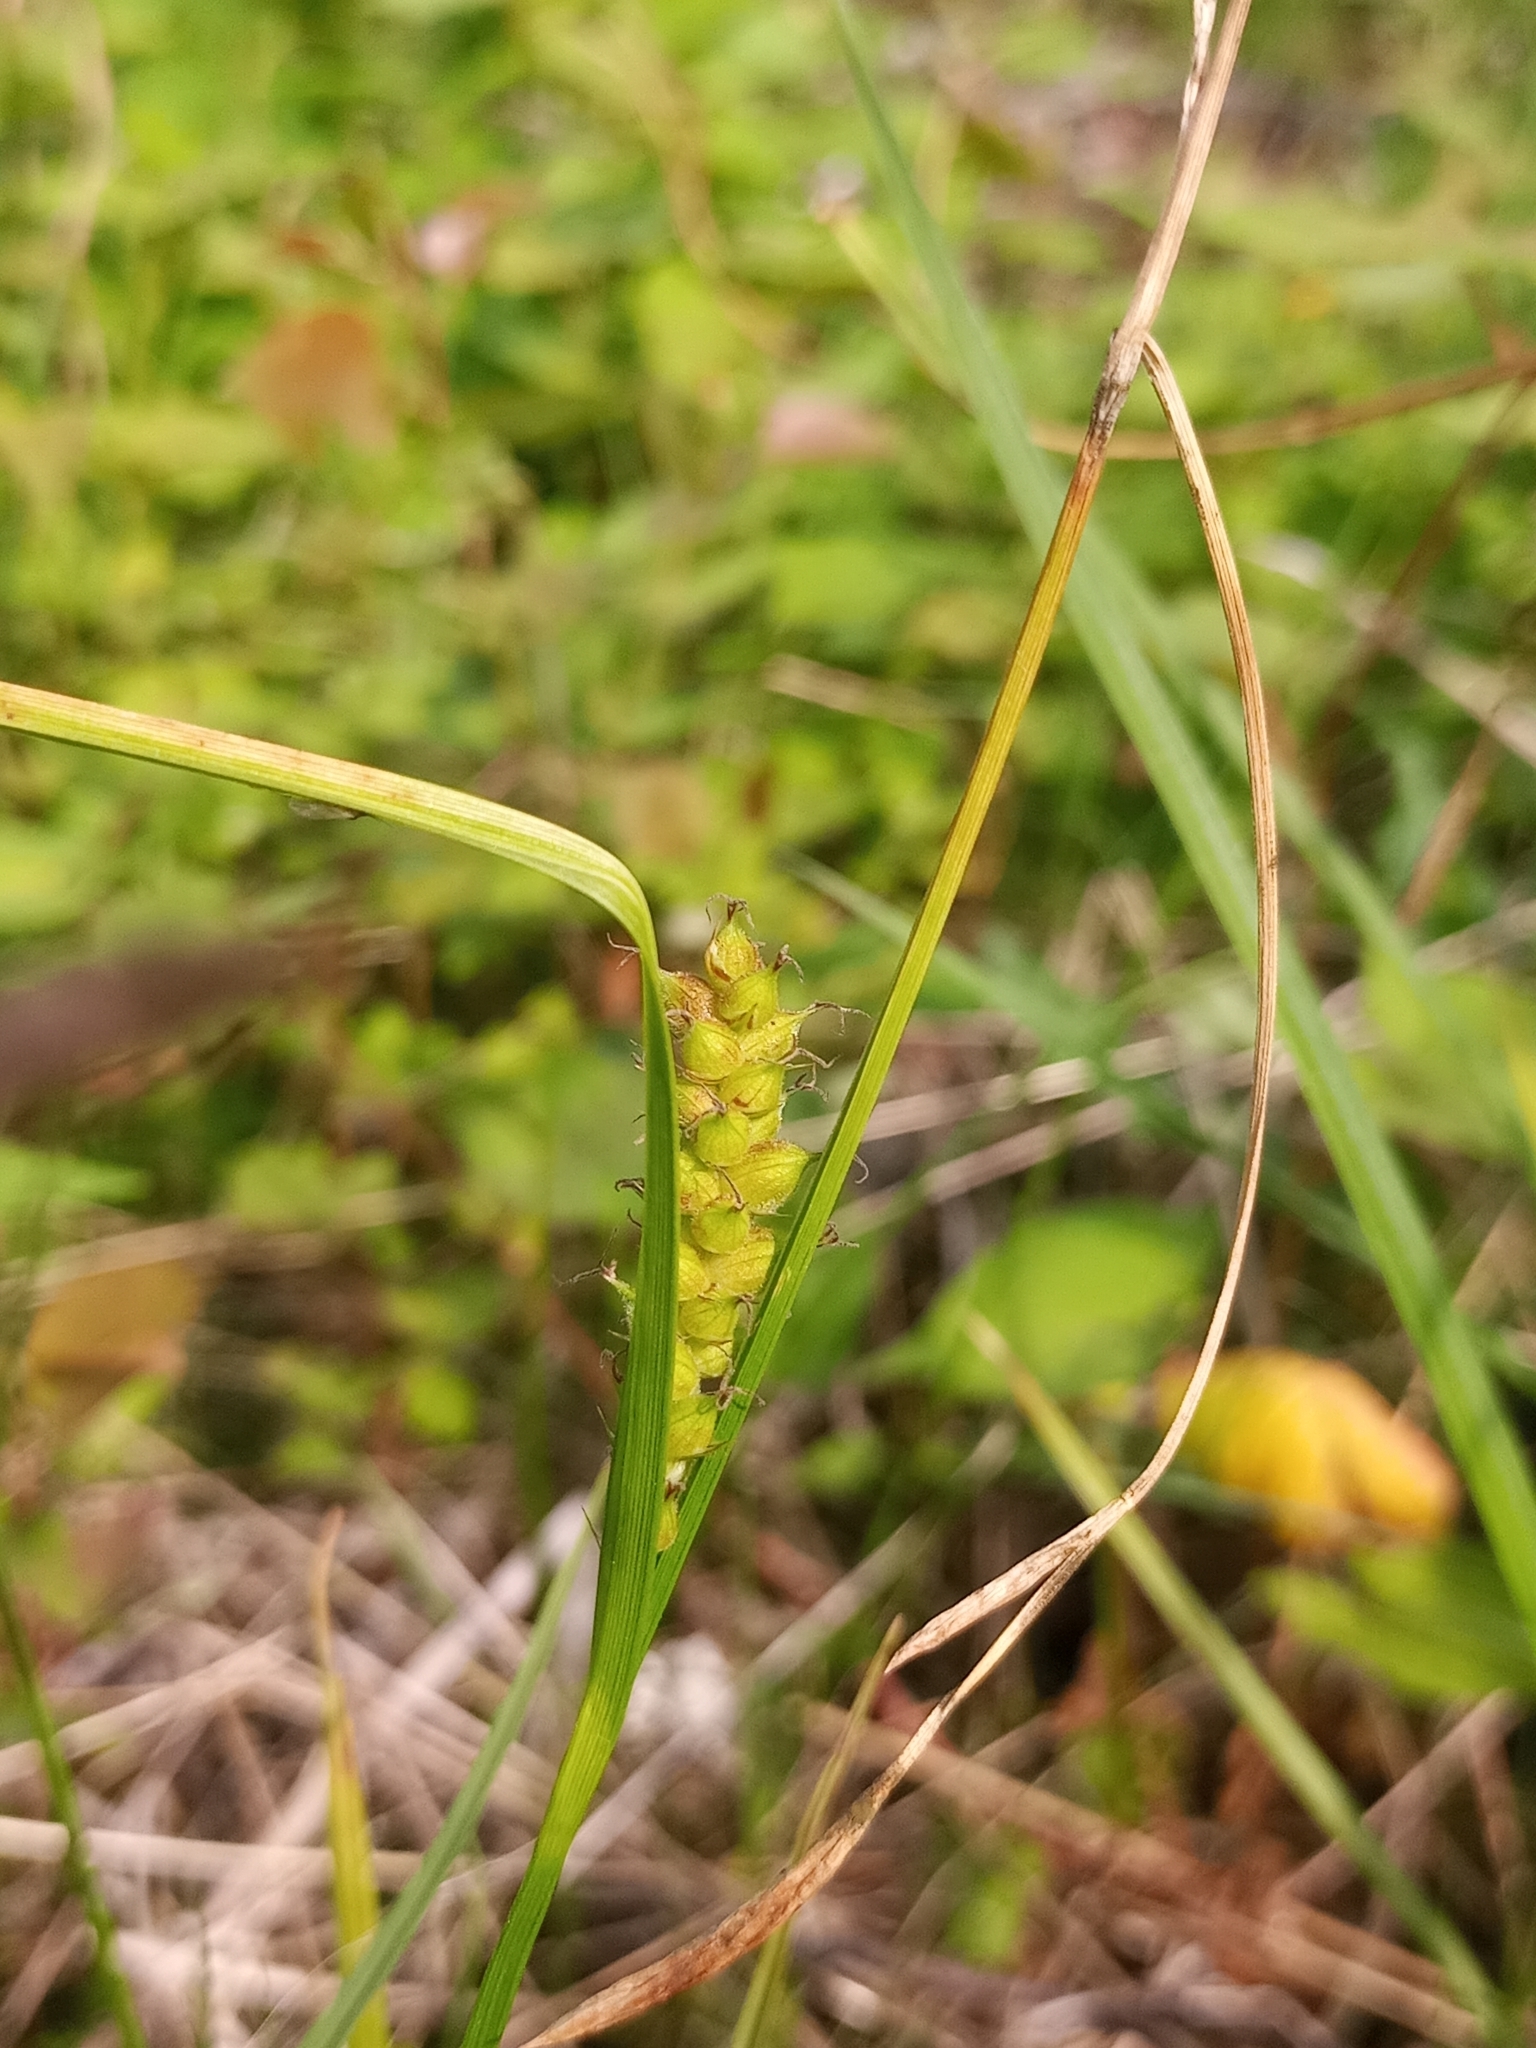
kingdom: Plantae
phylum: Tracheophyta
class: Liliopsida
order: Poales
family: Cyperaceae
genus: Carex
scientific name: Carex houghtoniana
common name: Houghton's sedge
